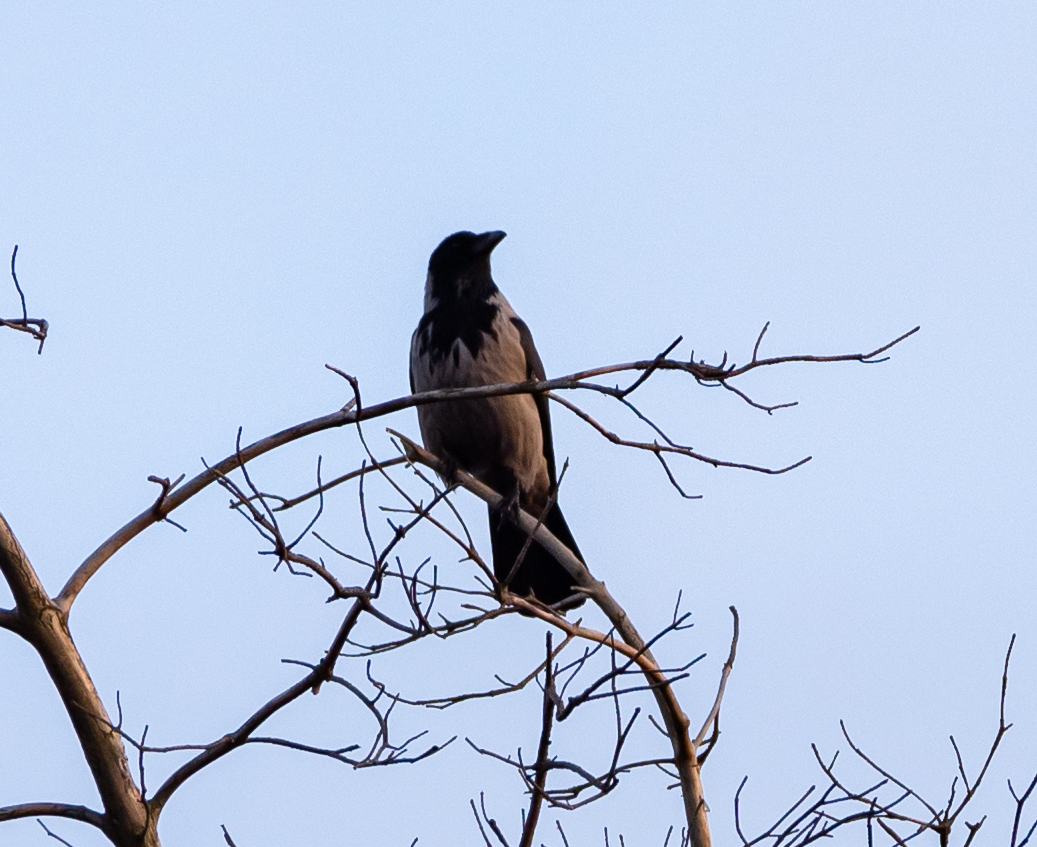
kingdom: Animalia
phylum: Chordata
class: Aves
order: Passeriformes
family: Corvidae
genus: Corvus
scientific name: Corvus cornix
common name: Hooded crow
